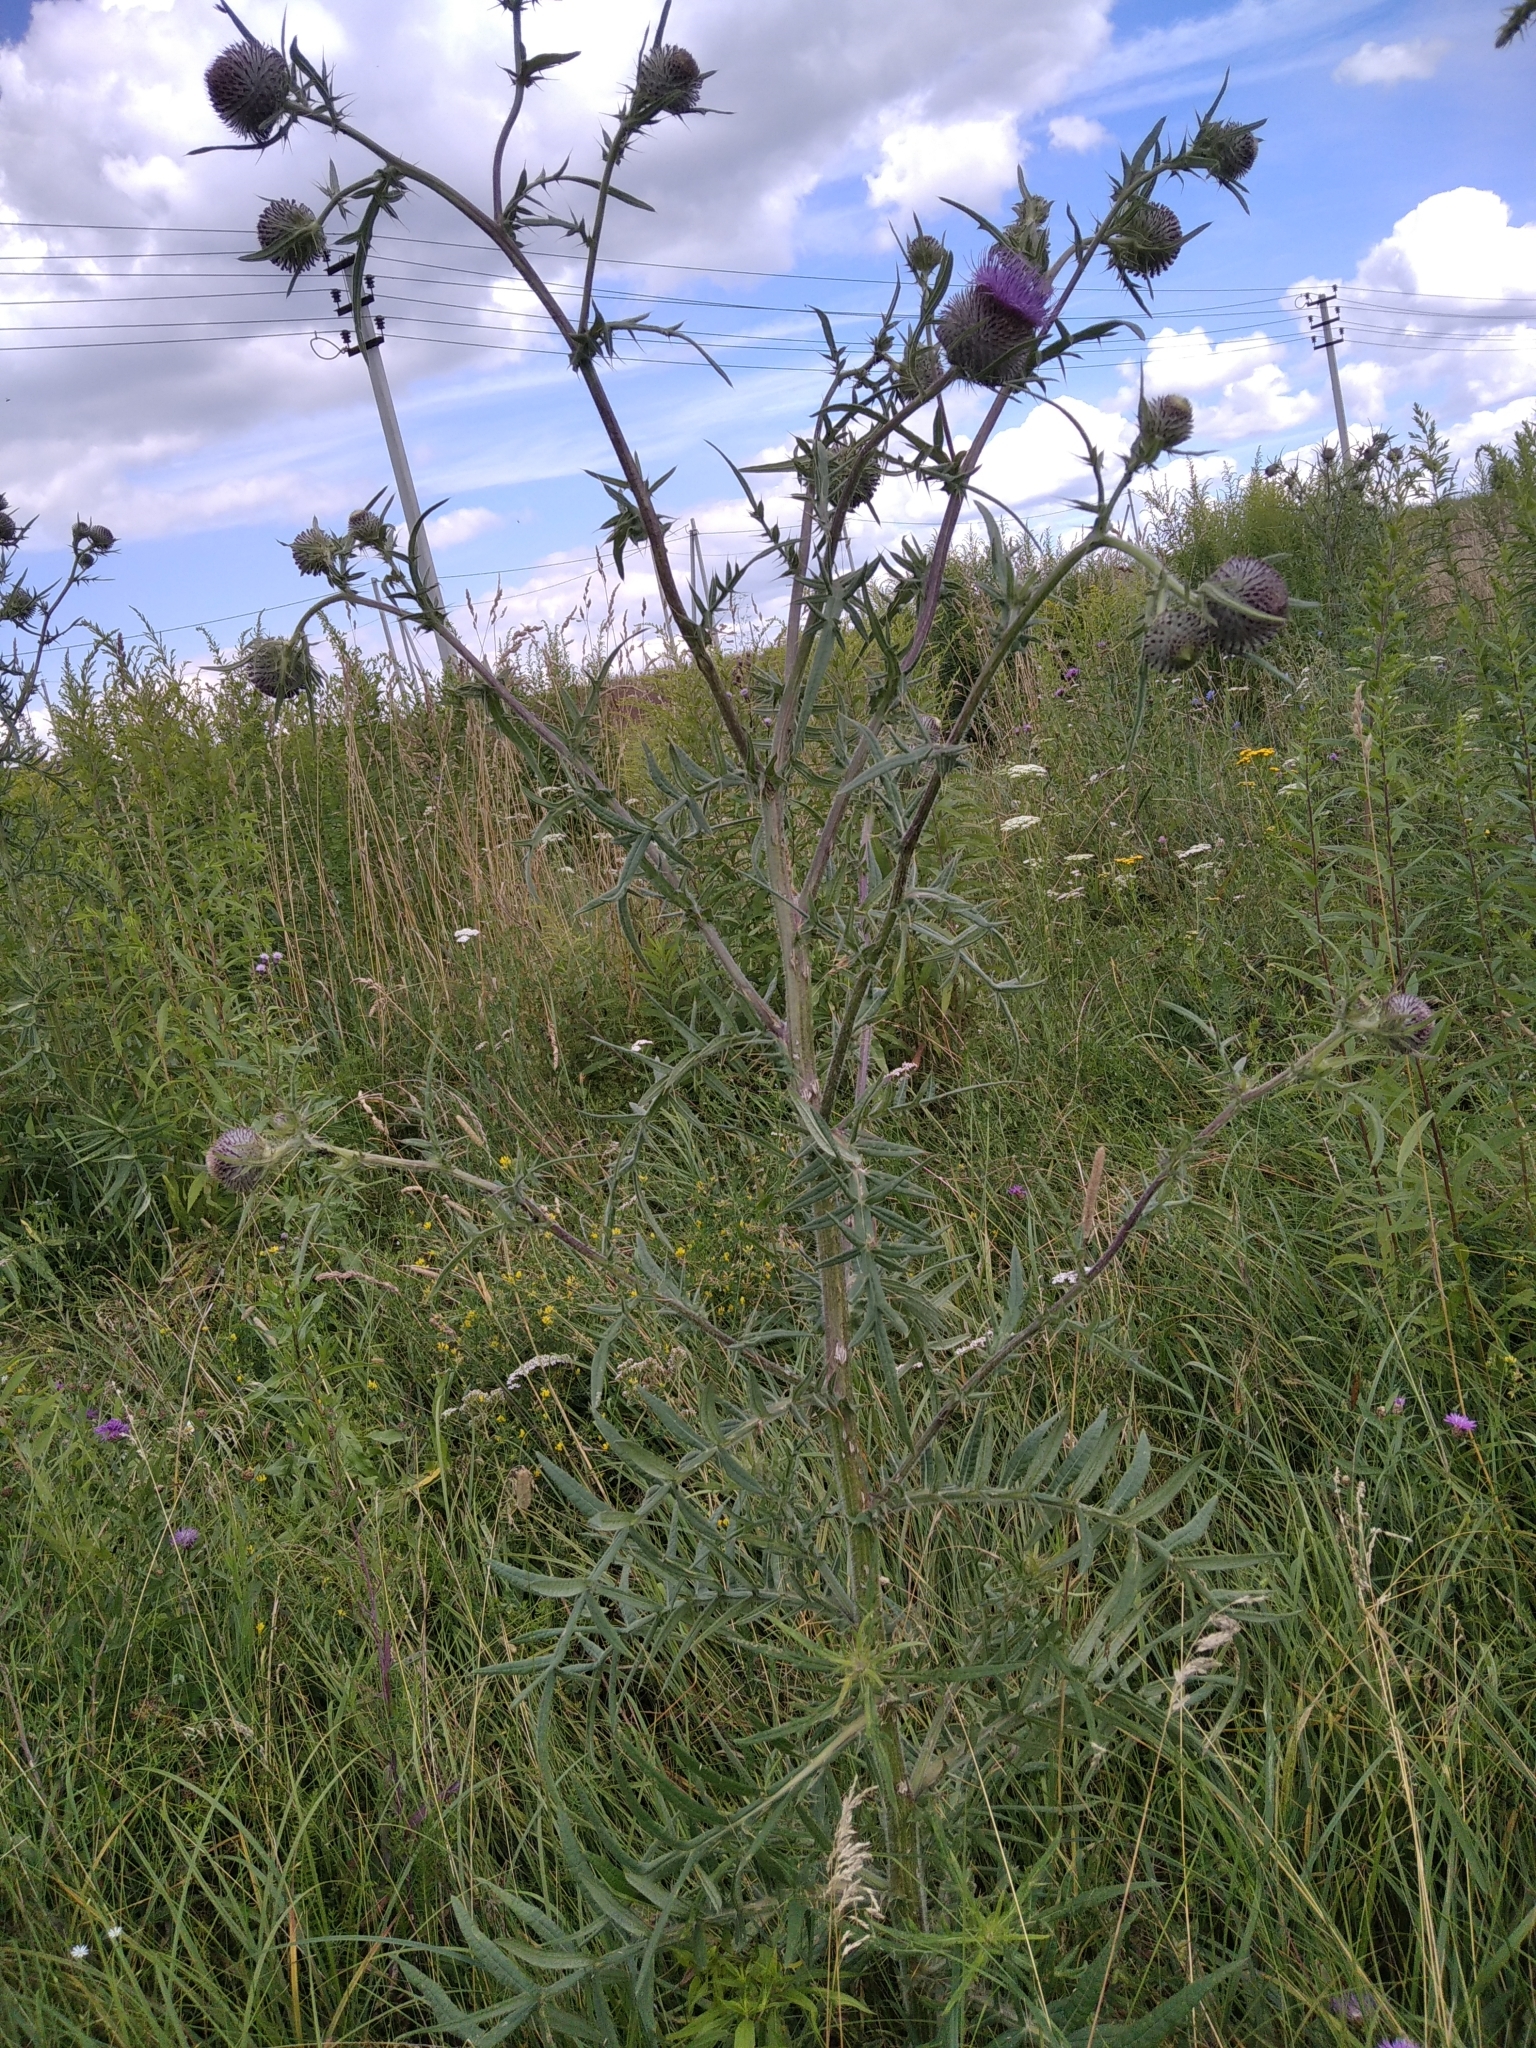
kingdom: Plantae
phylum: Tracheophyta
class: Magnoliopsida
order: Asterales
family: Asteraceae
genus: Lophiolepis
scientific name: Lophiolepis decussata
